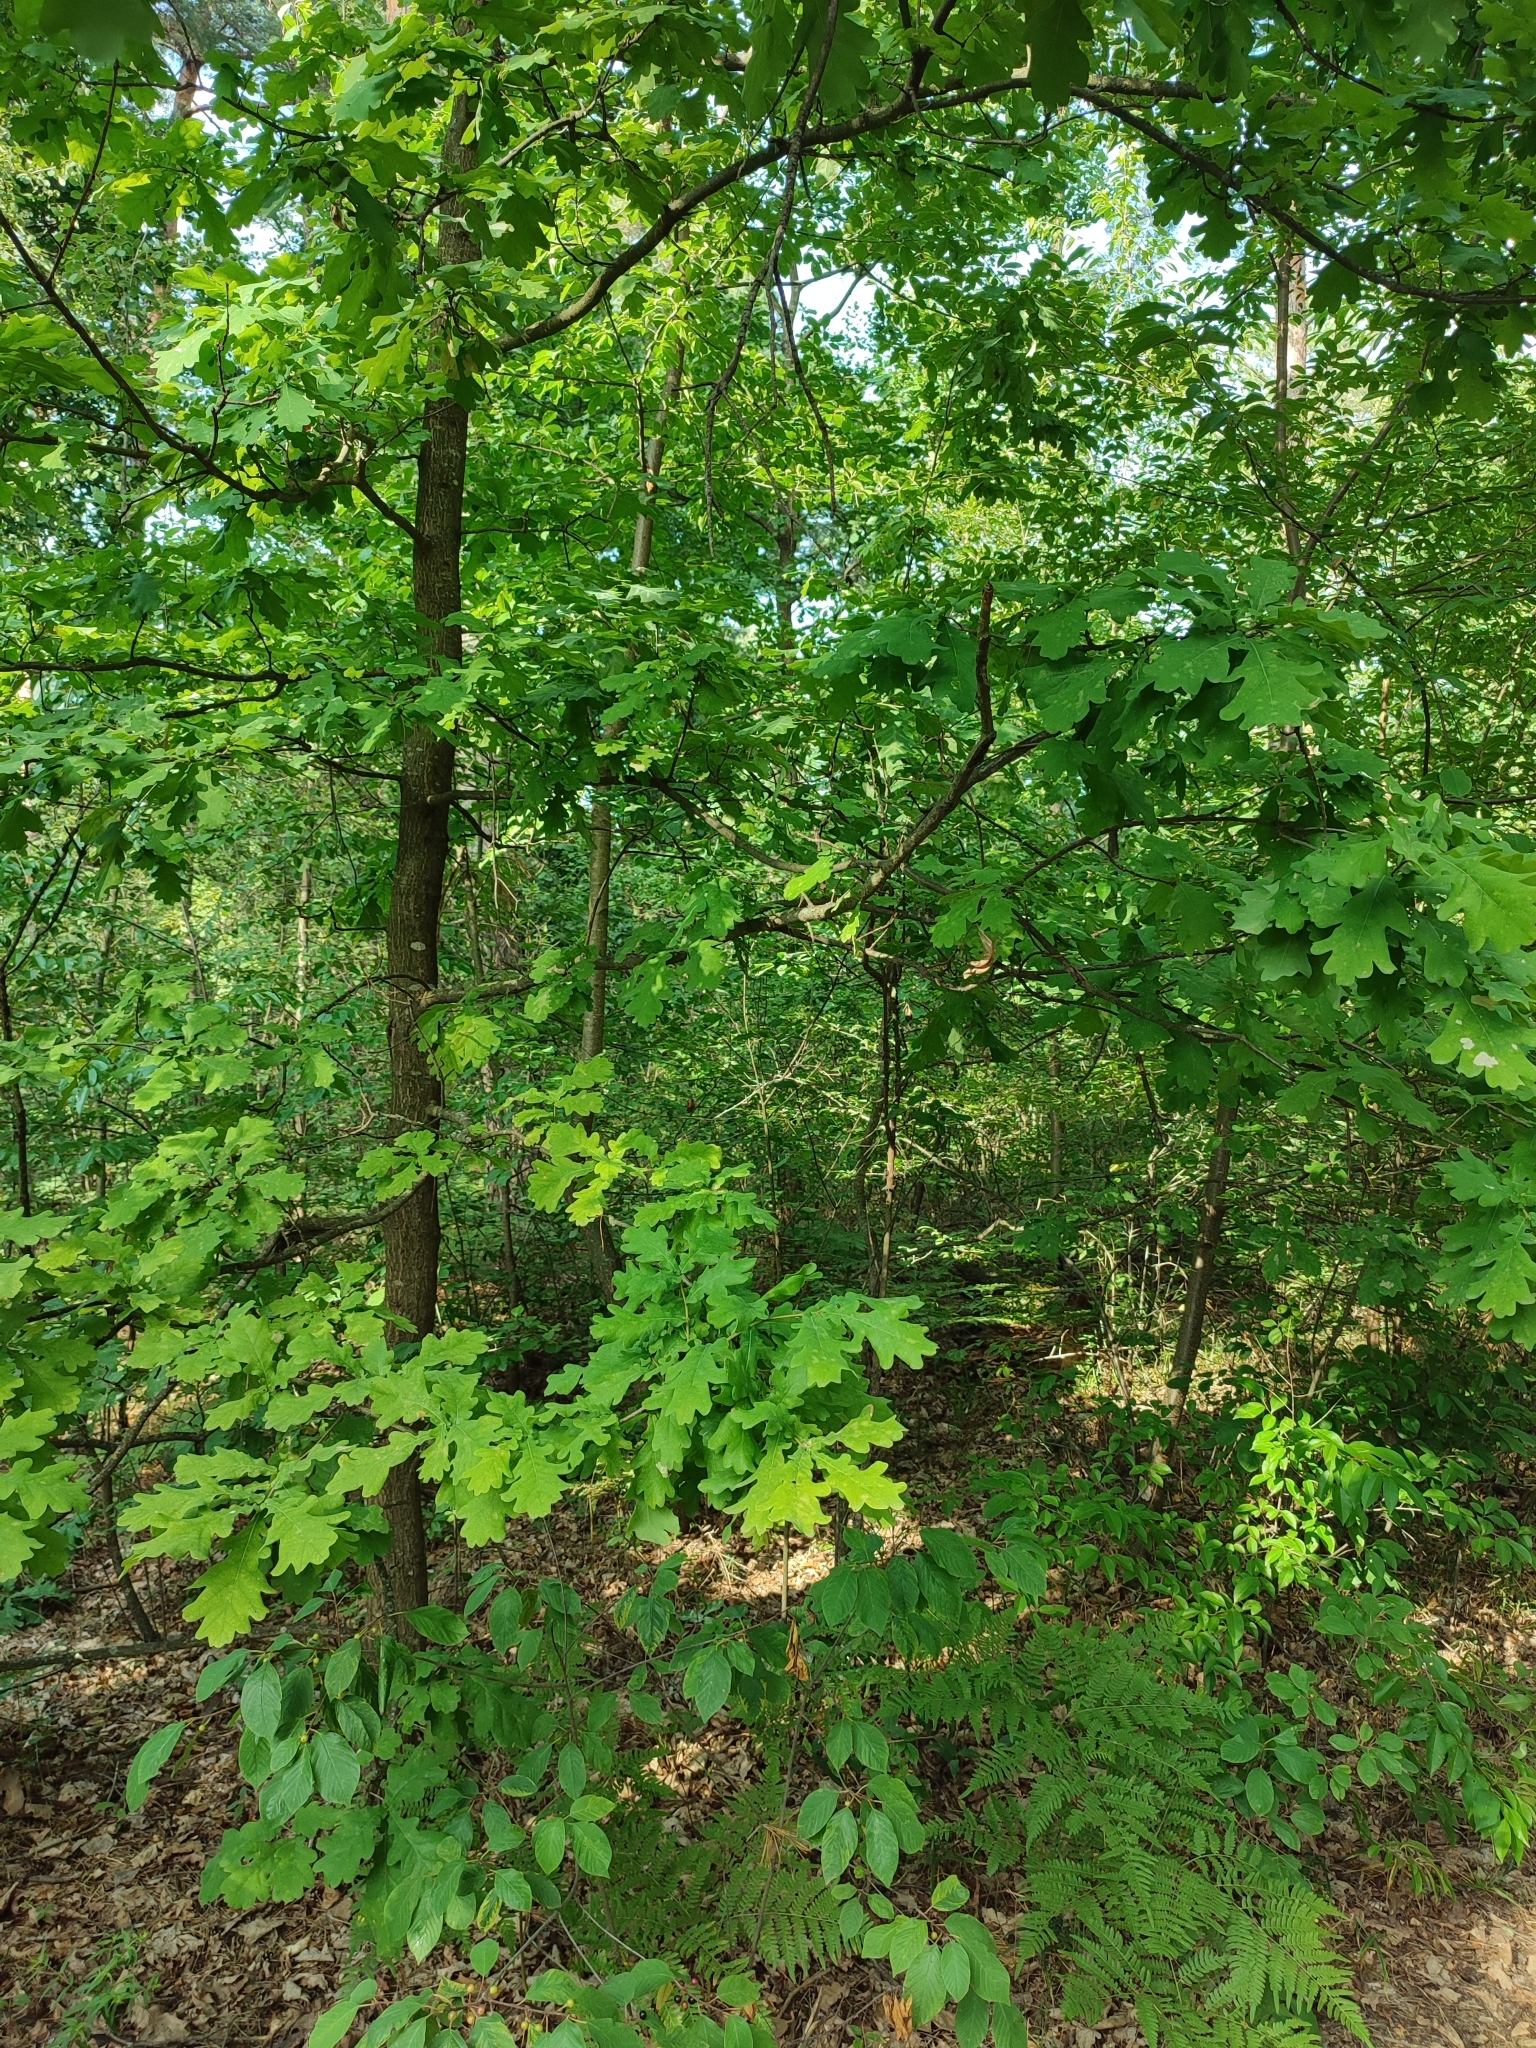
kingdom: Plantae
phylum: Tracheophyta
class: Magnoliopsida
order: Fagales
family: Fagaceae
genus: Quercus
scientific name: Quercus robur
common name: Pedunculate oak
